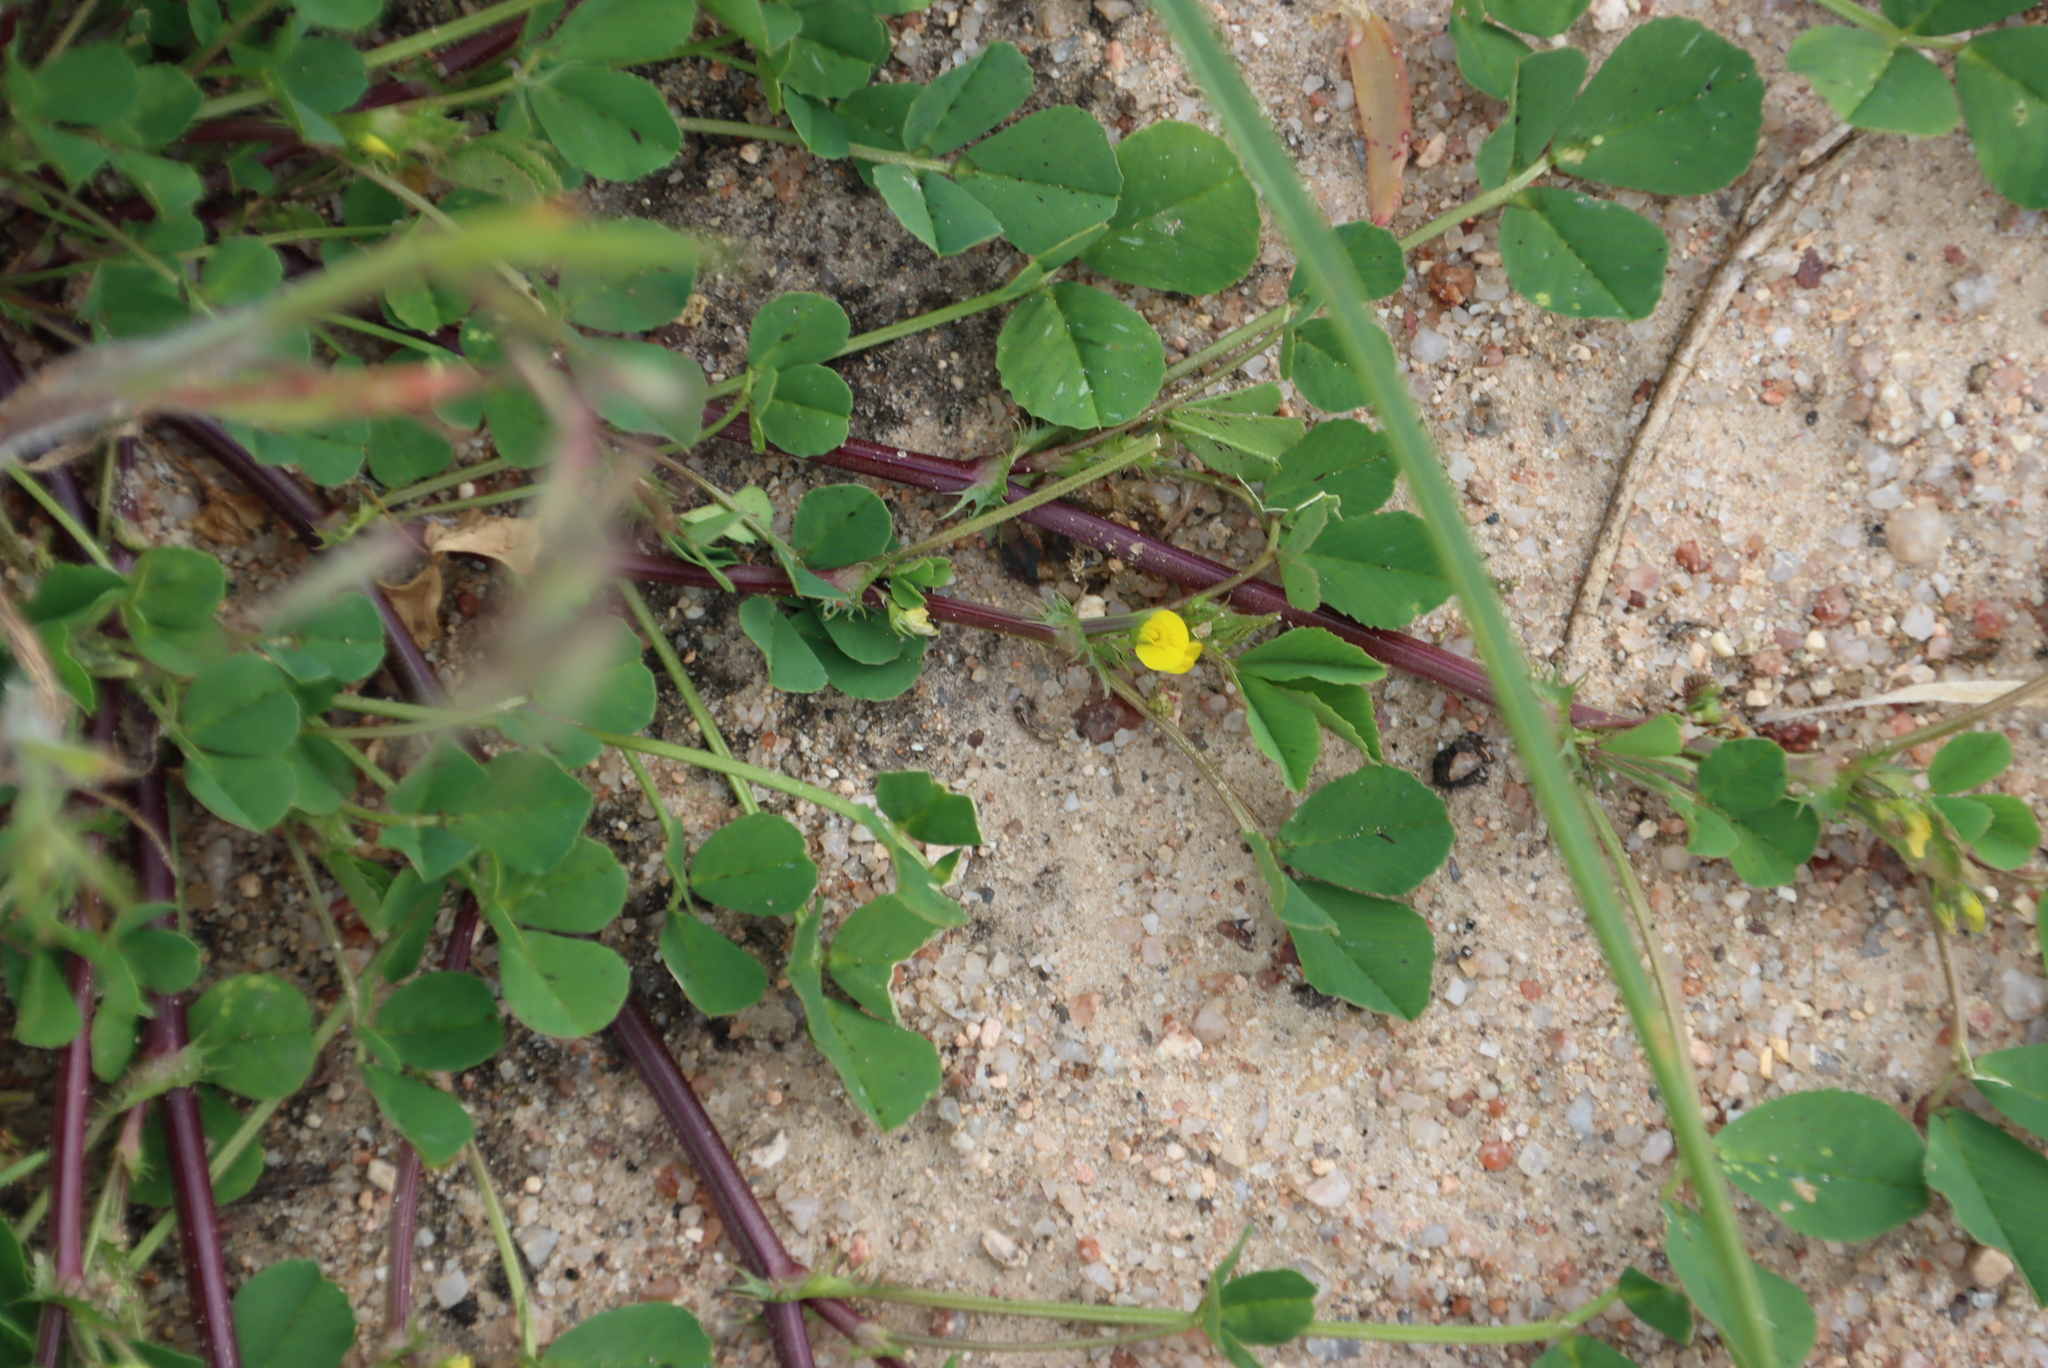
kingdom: Plantae
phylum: Tracheophyta
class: Magnoliopsida
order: Fabales
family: Fabaceae
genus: Medicago
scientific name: Medicago polymorpha
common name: Burclover
